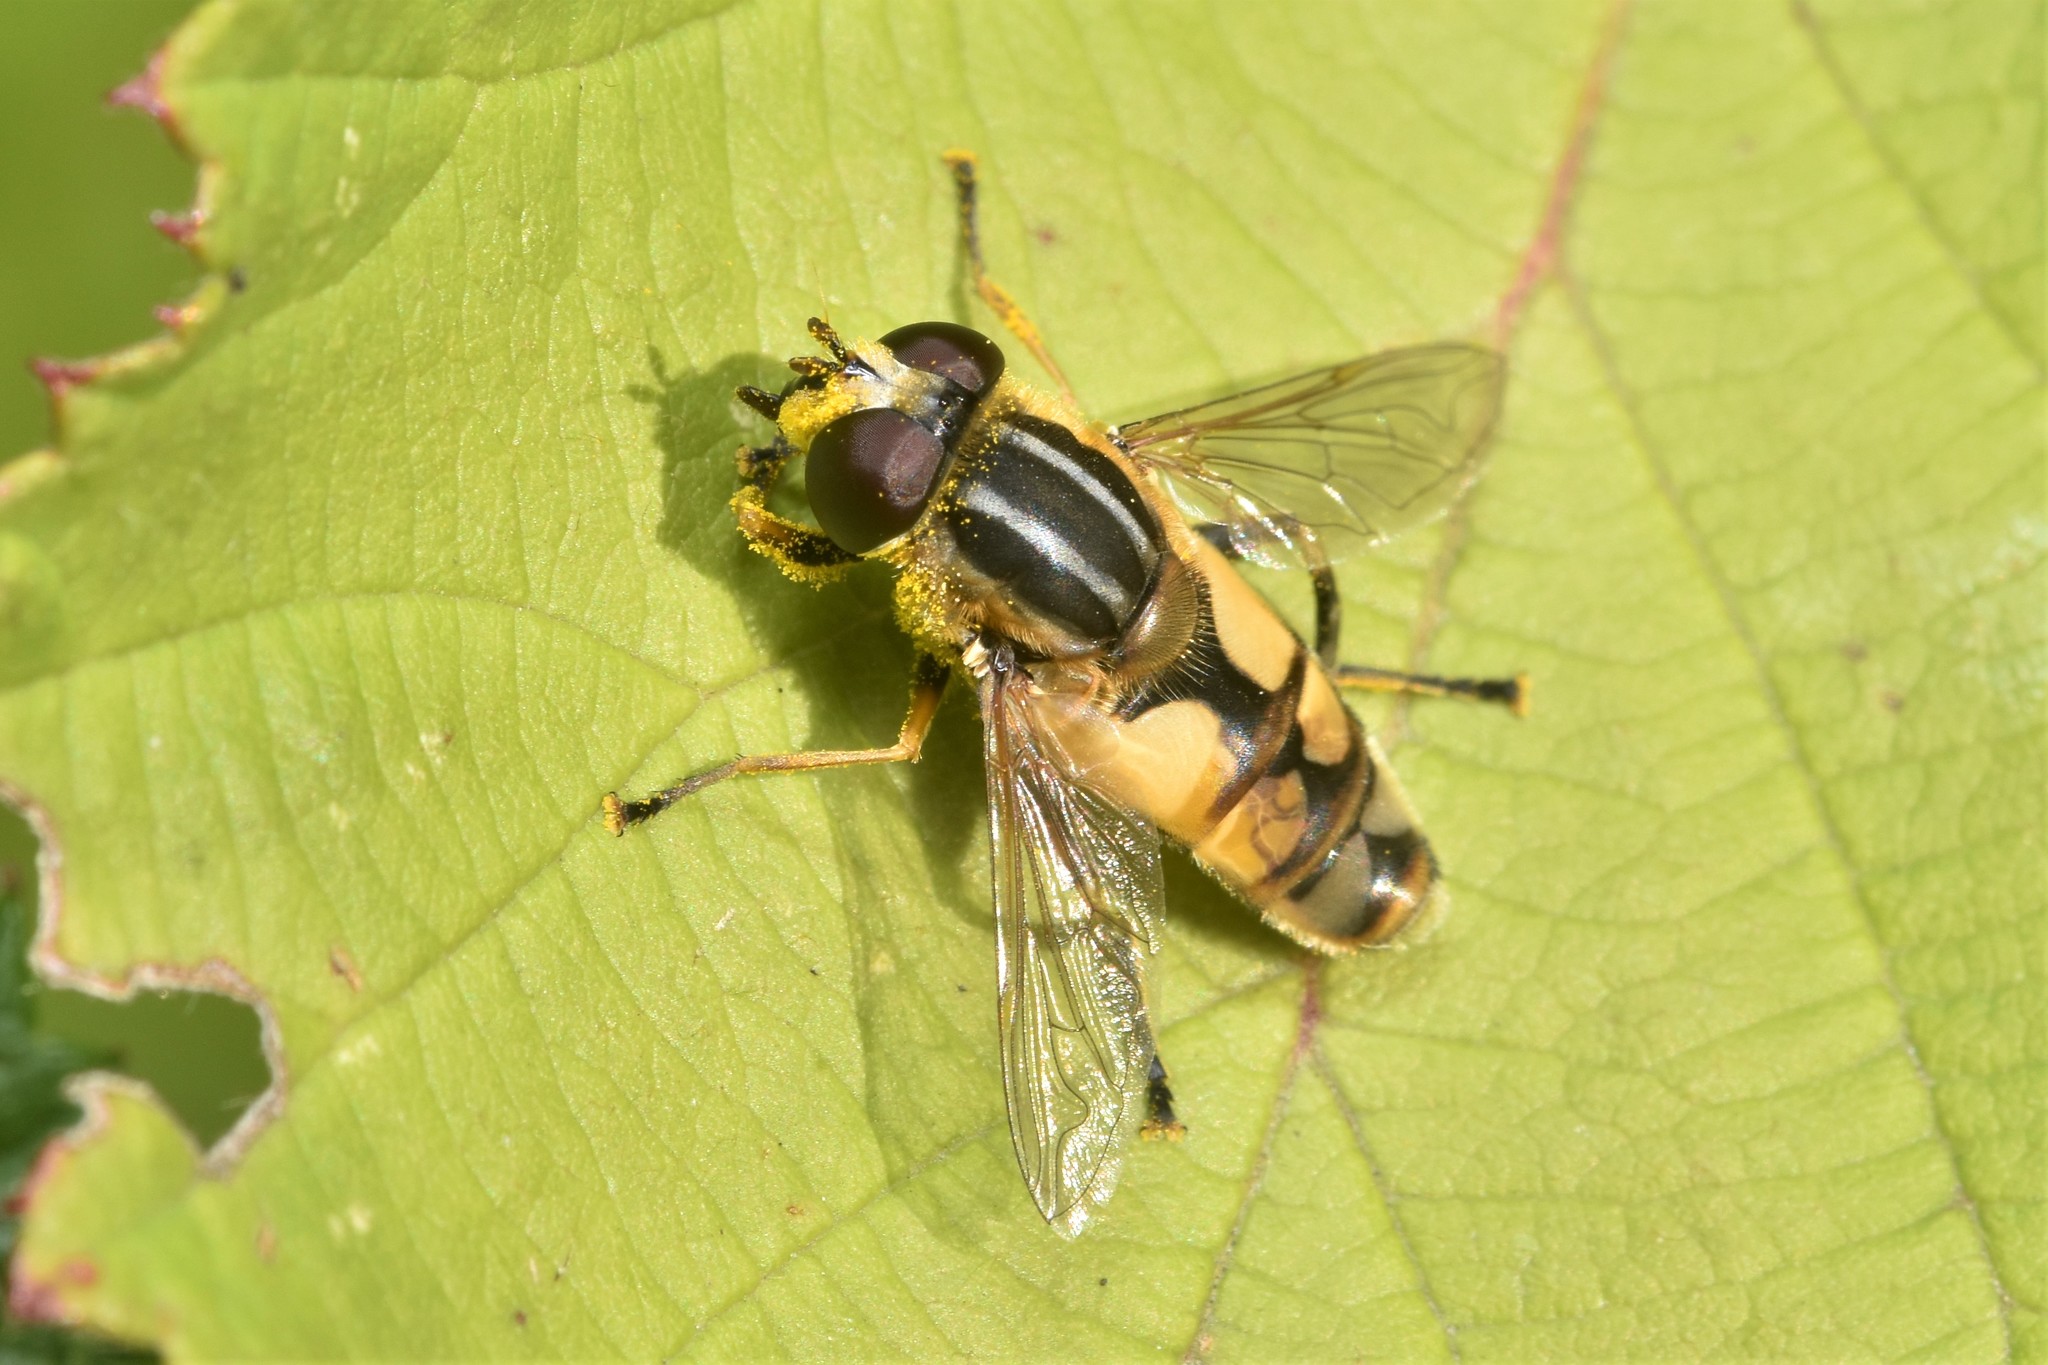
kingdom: Animalia
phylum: Arthropoda
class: Insecta
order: Diptera
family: Syrphidae
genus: Helophilus
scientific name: Helophilus hybridus
